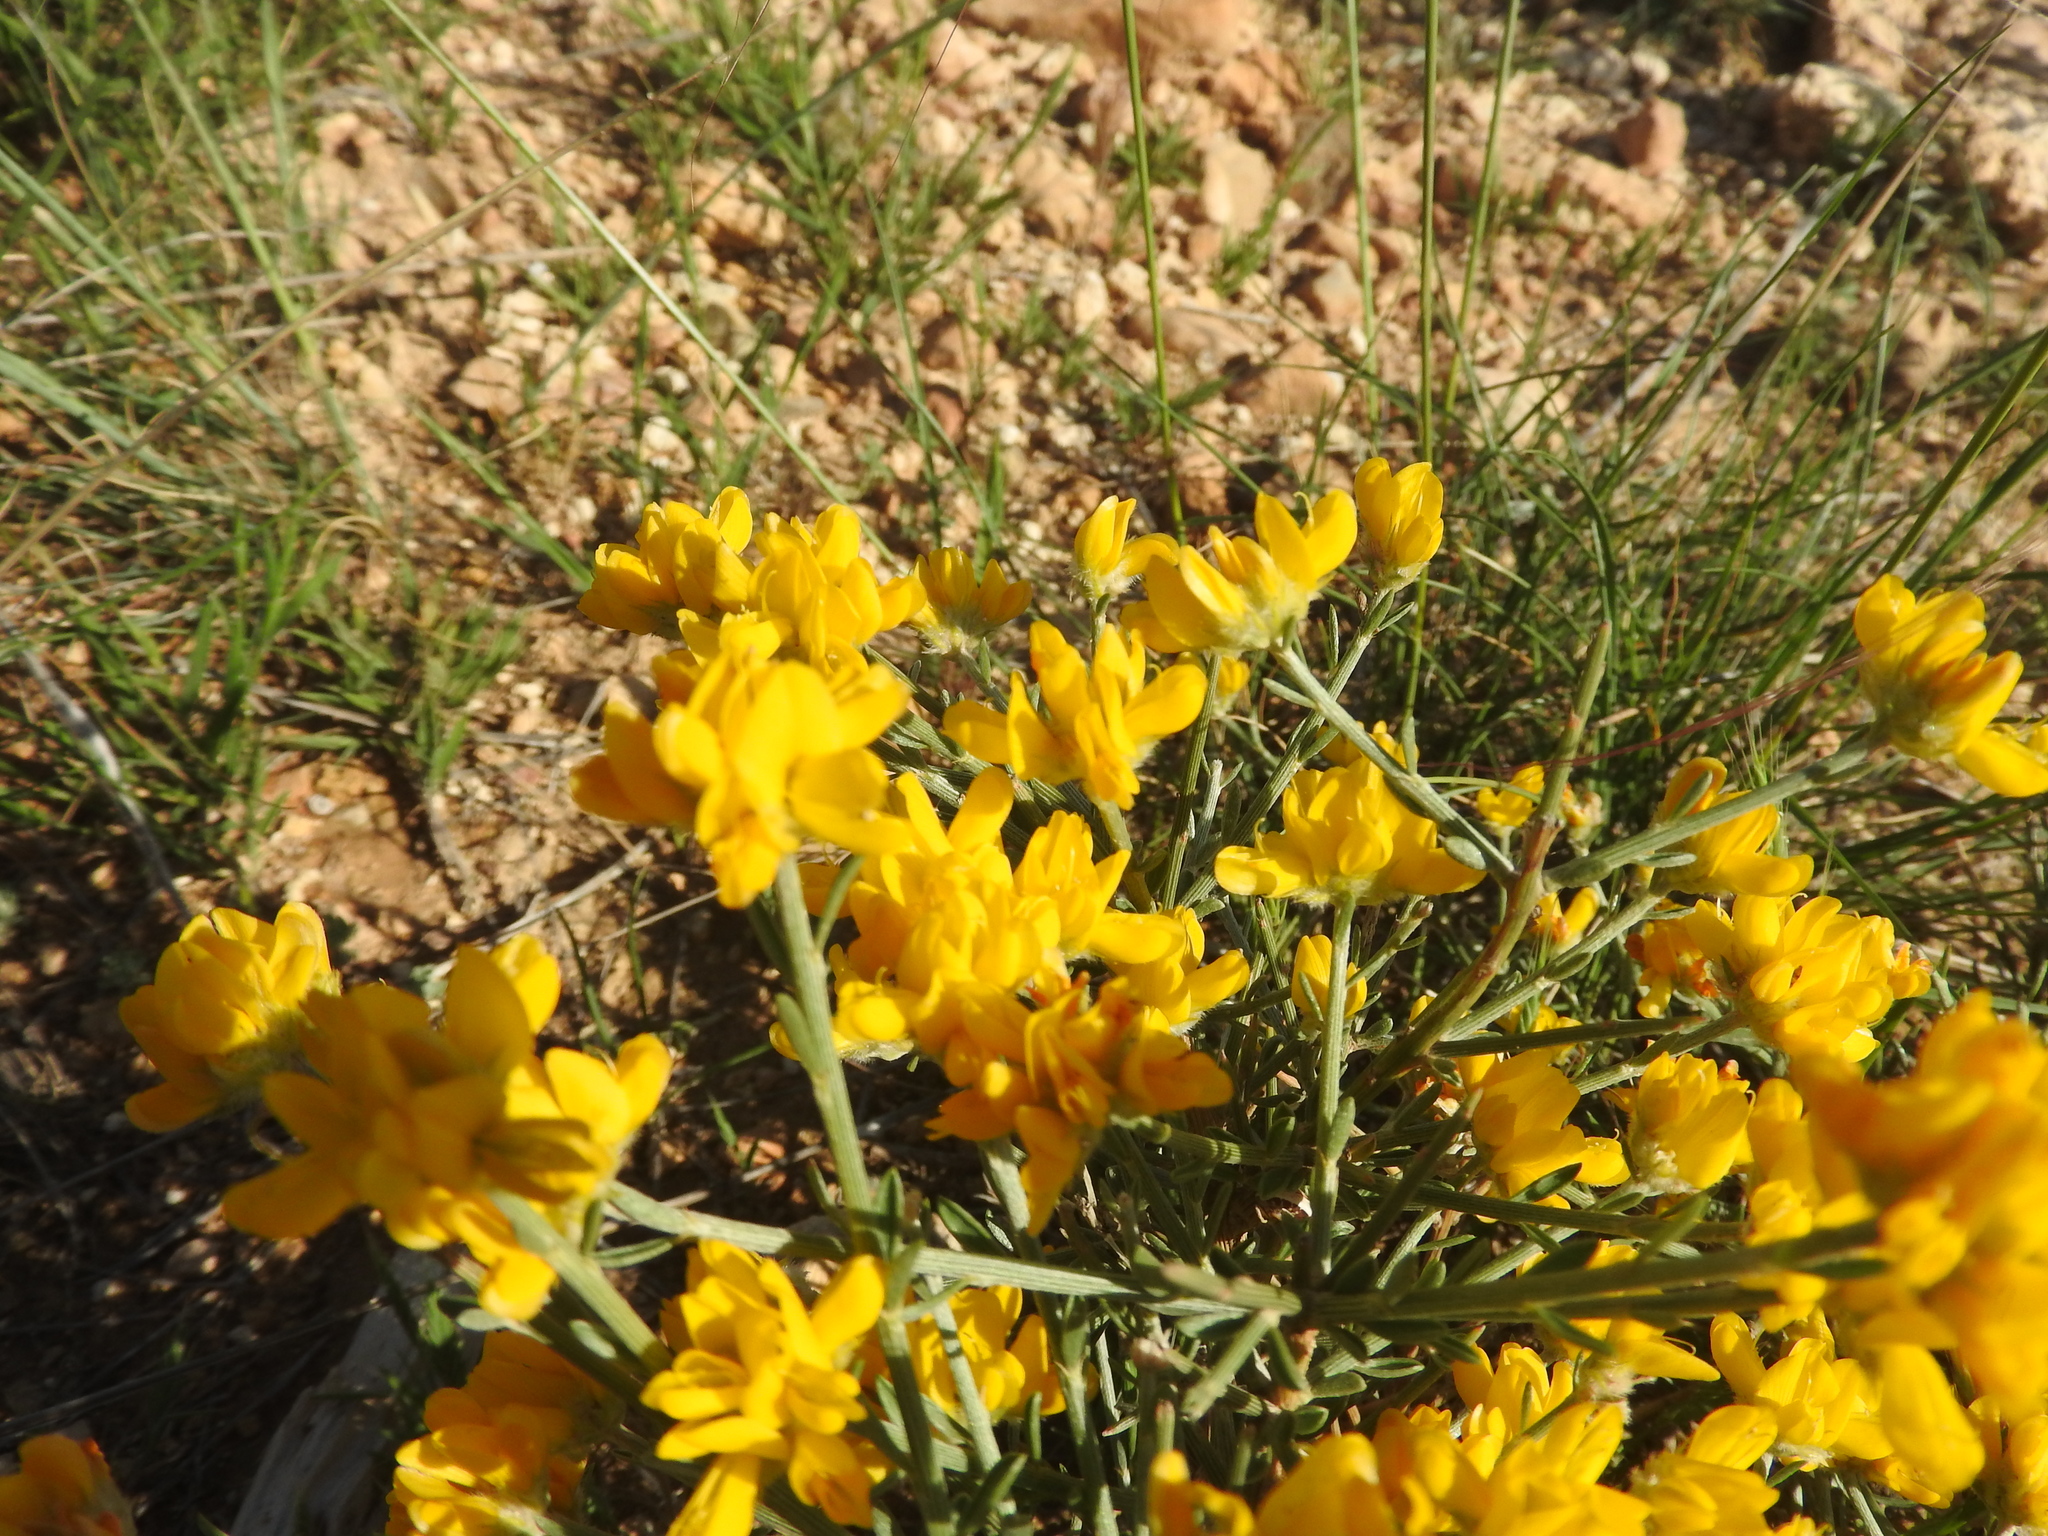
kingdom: Plantae
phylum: Tracheophyta
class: Magnoliopsida
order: Fabales
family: Fabaceae
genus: Genista
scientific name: Genista microcephala
